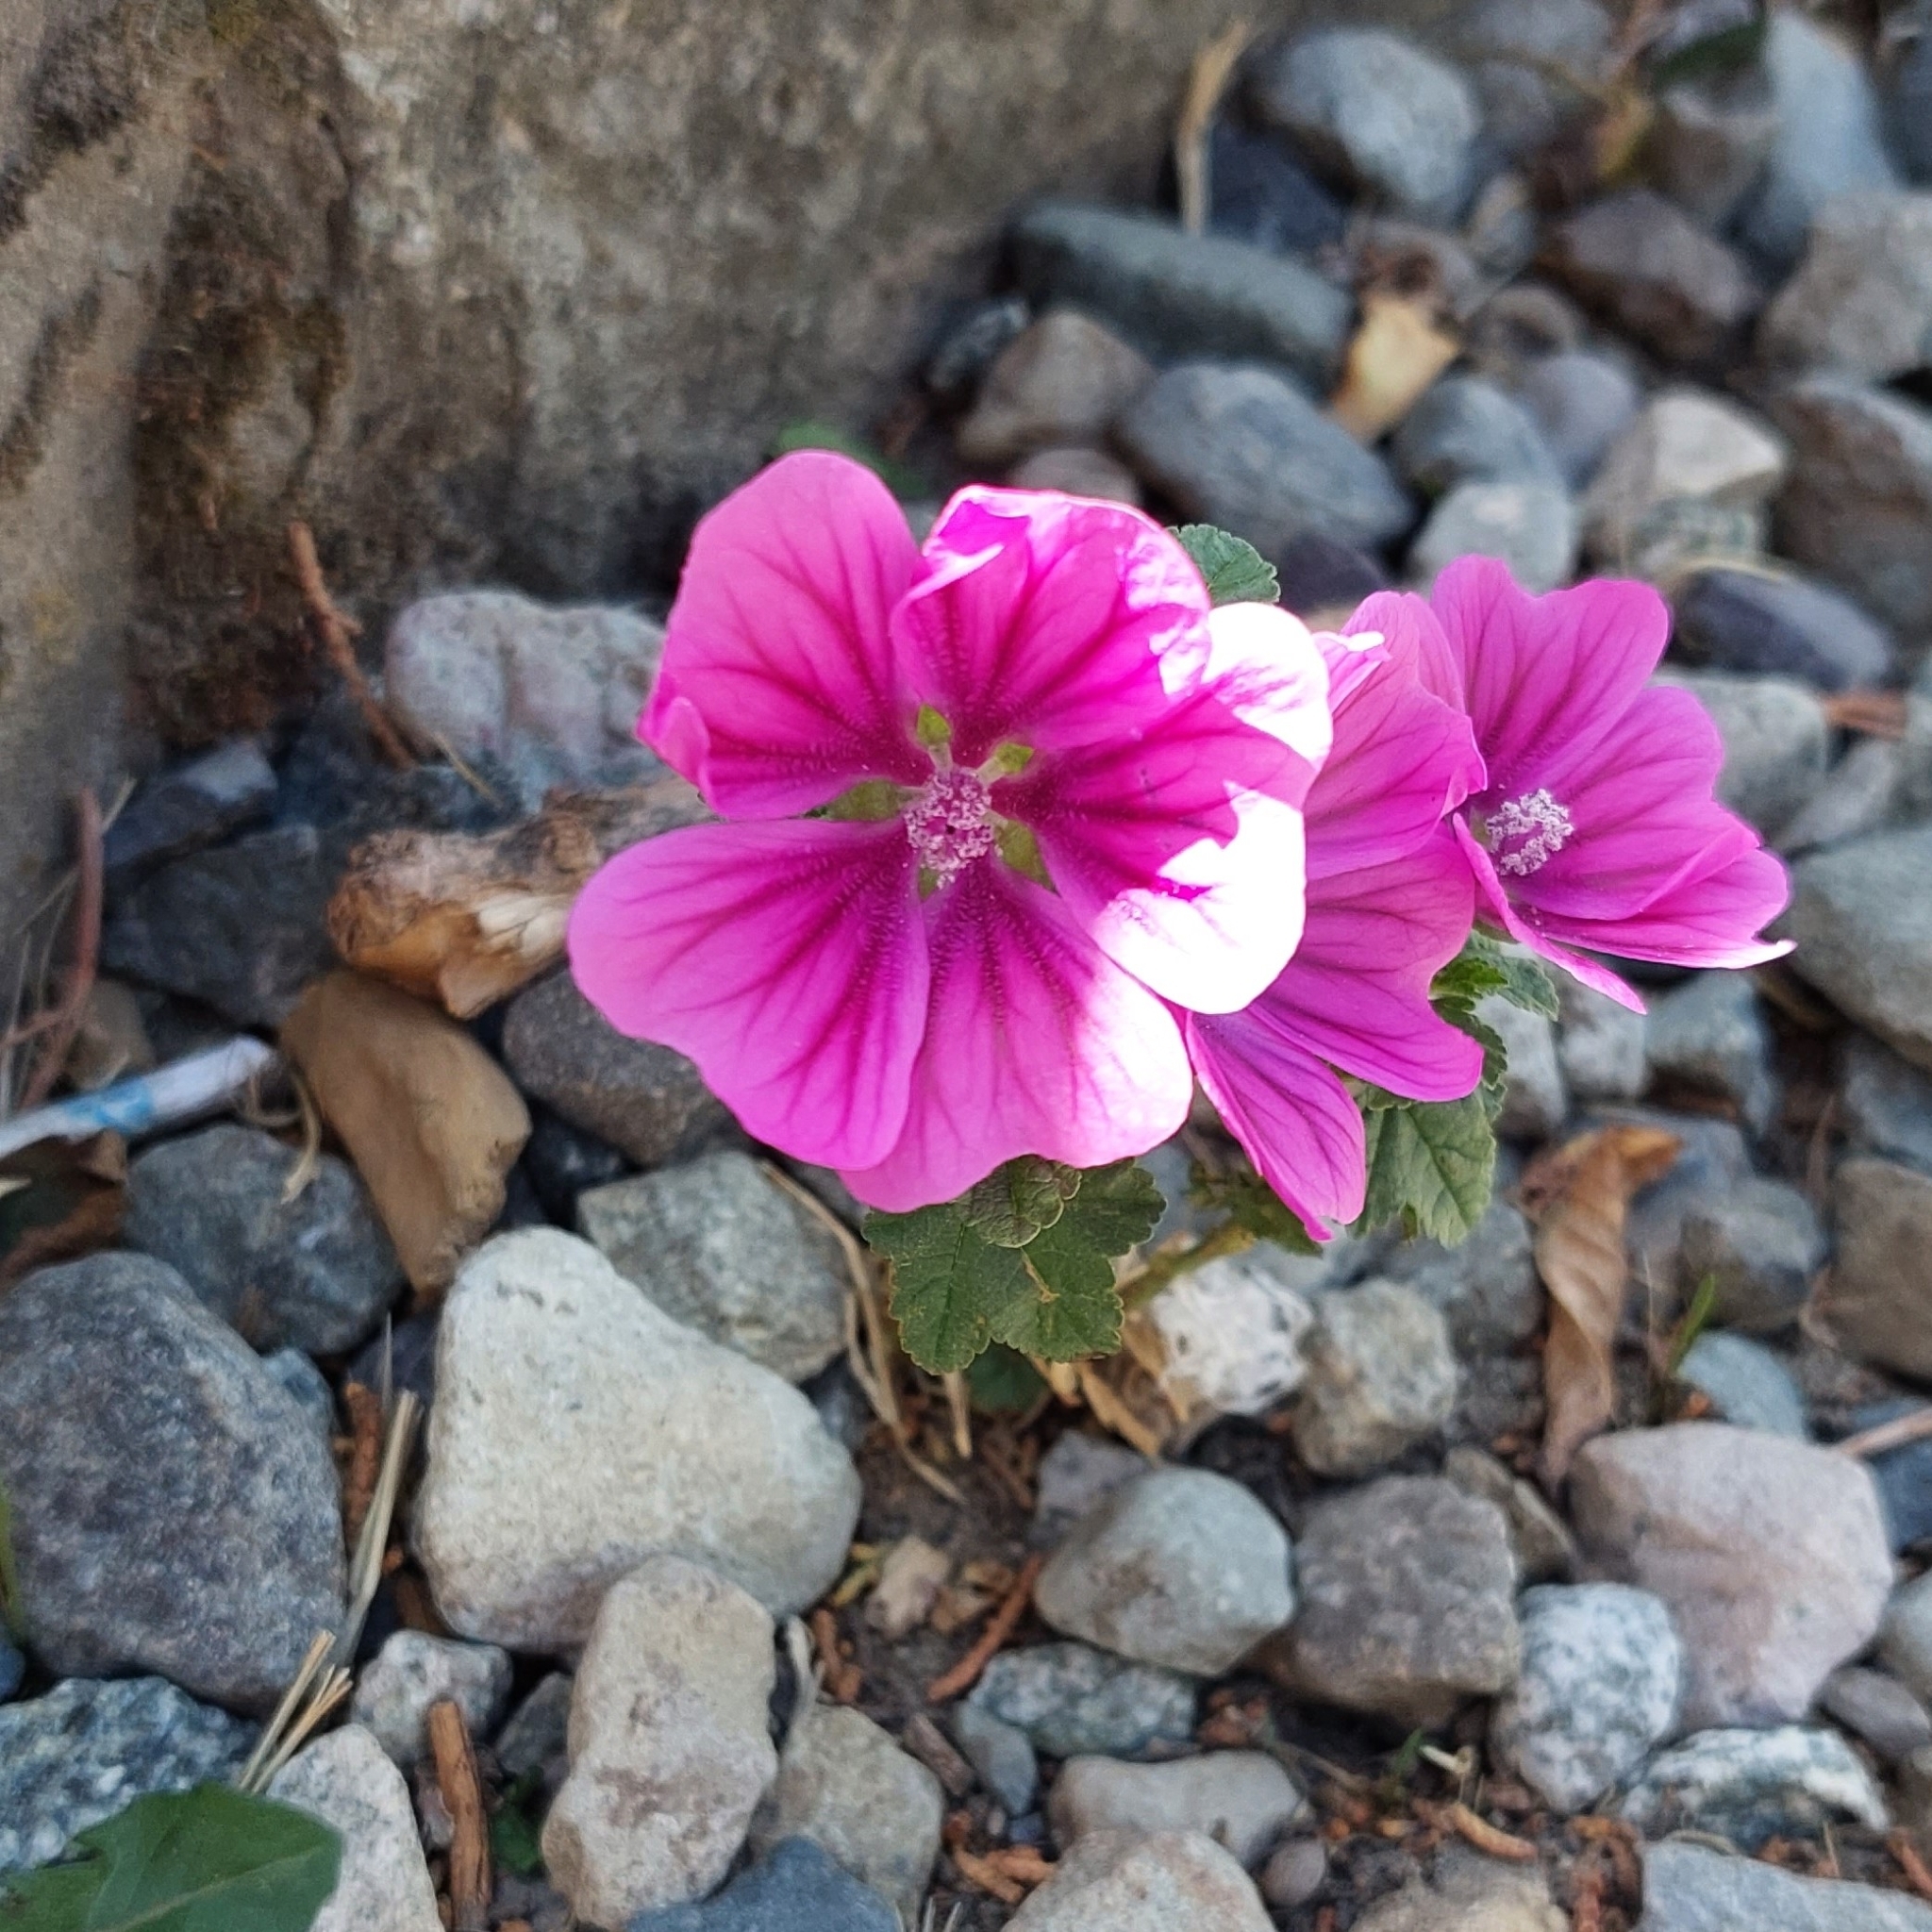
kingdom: Plantae
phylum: Tracheophyta
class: Magnoliopsida
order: Malvales
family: Malvaceae
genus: Malva
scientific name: Malva sylvestris
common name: Common mallow
